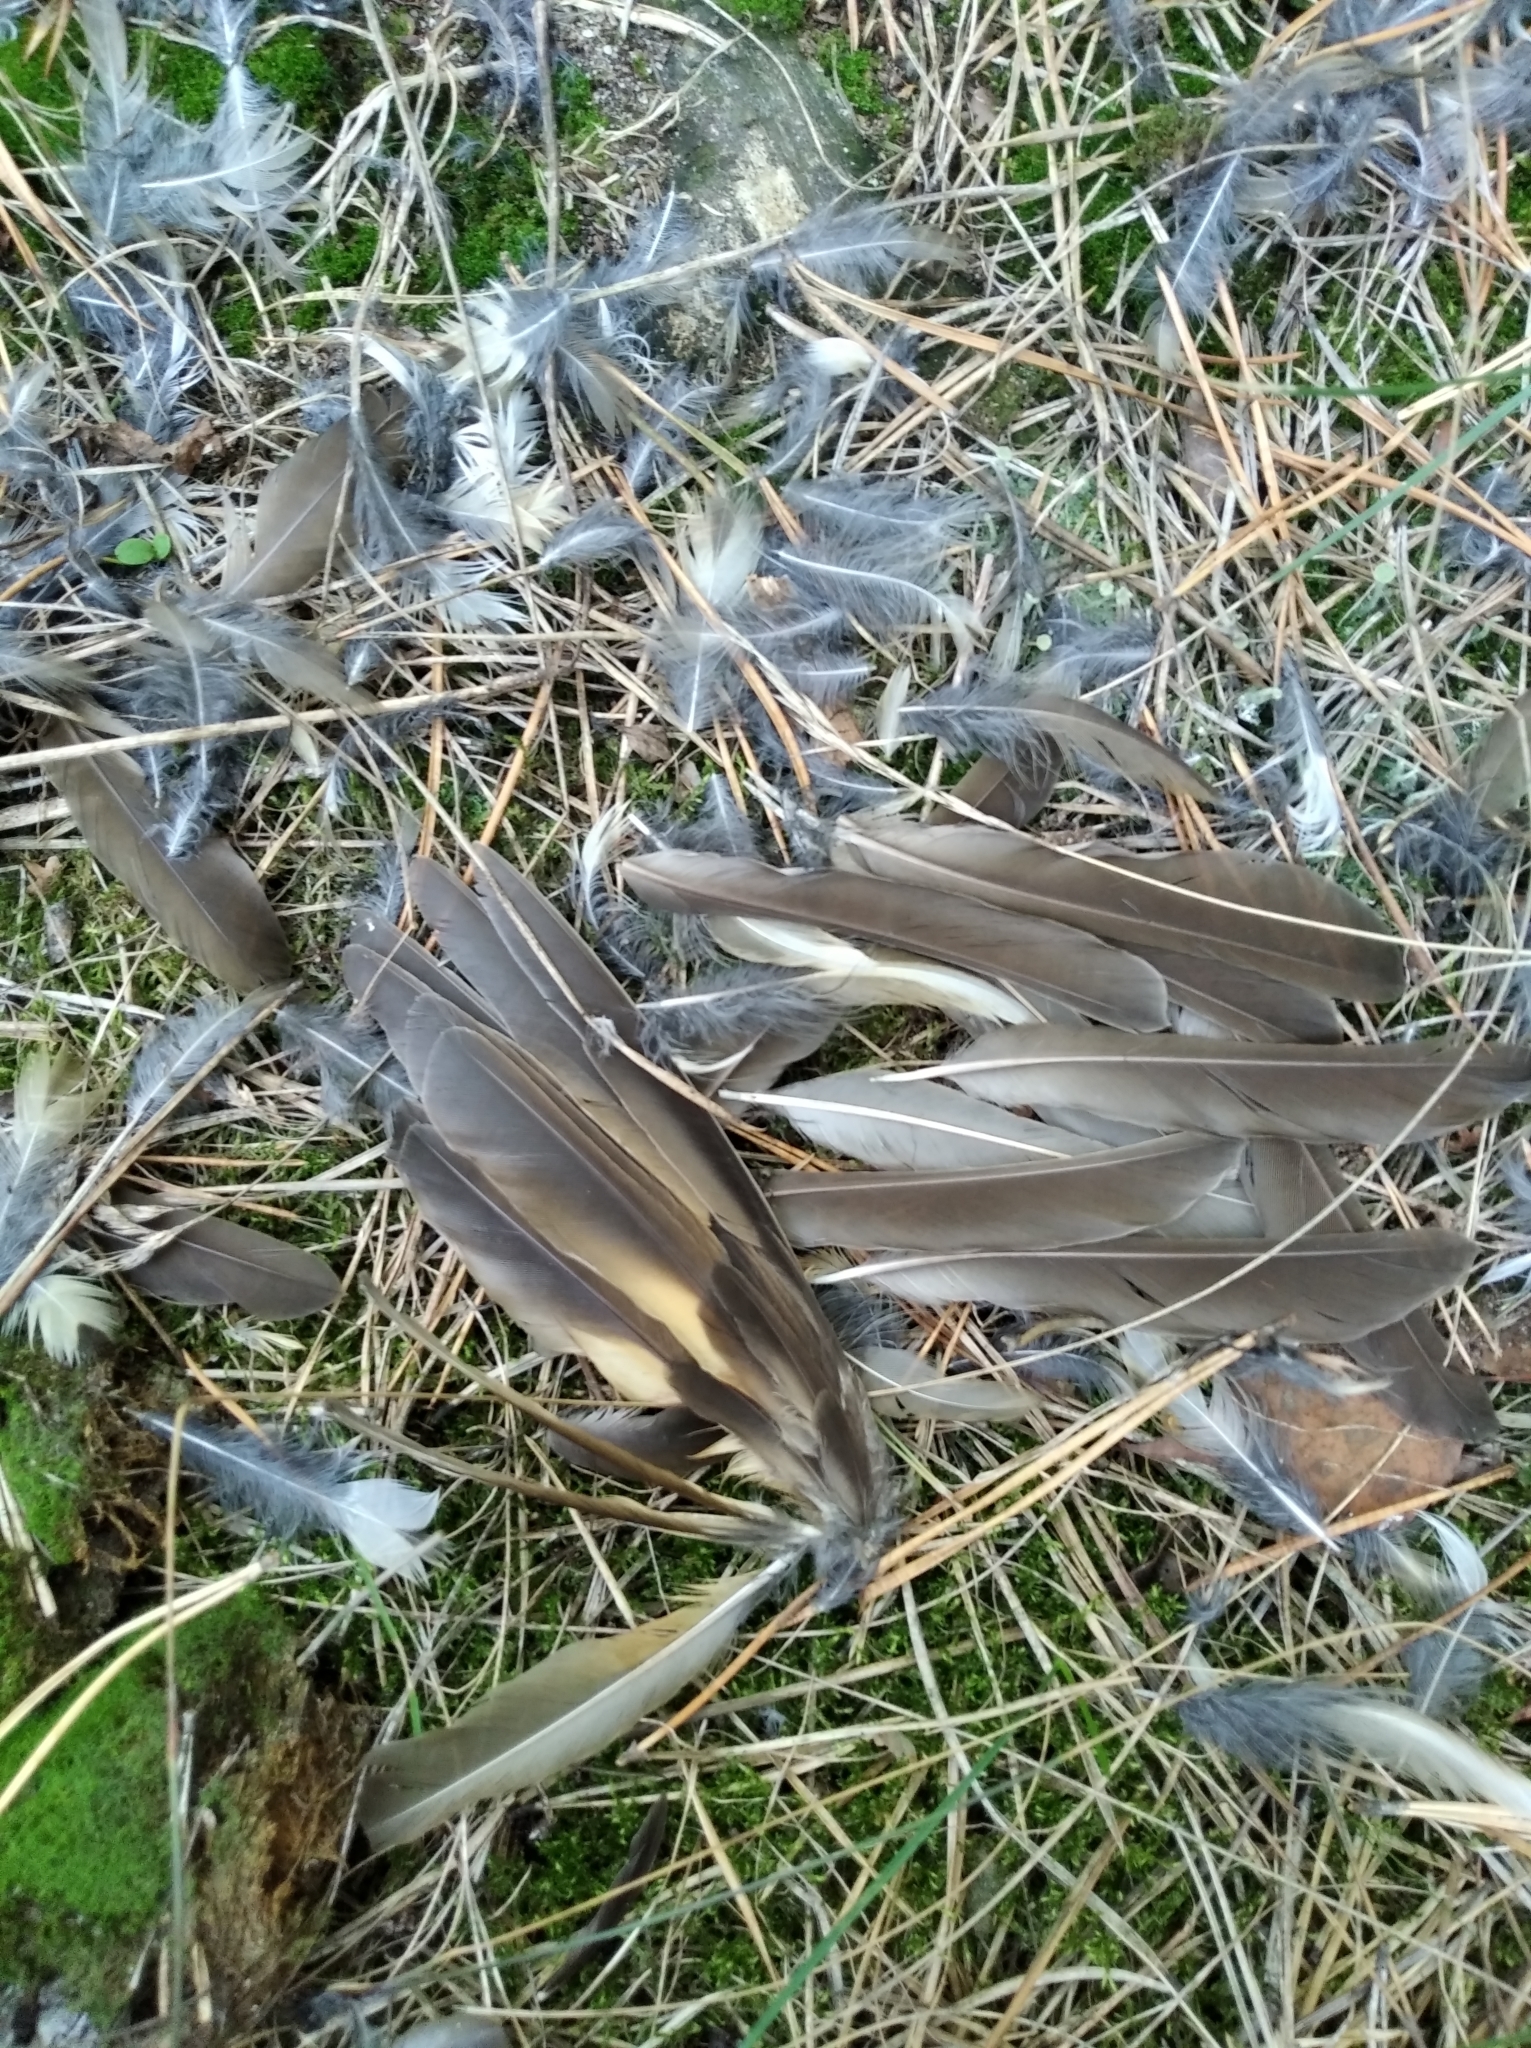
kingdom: Animalia
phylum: Chordata
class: Aves
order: Passeriformes
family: Turdidae
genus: Turdus
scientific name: Turdus philomelos
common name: Song thrush
